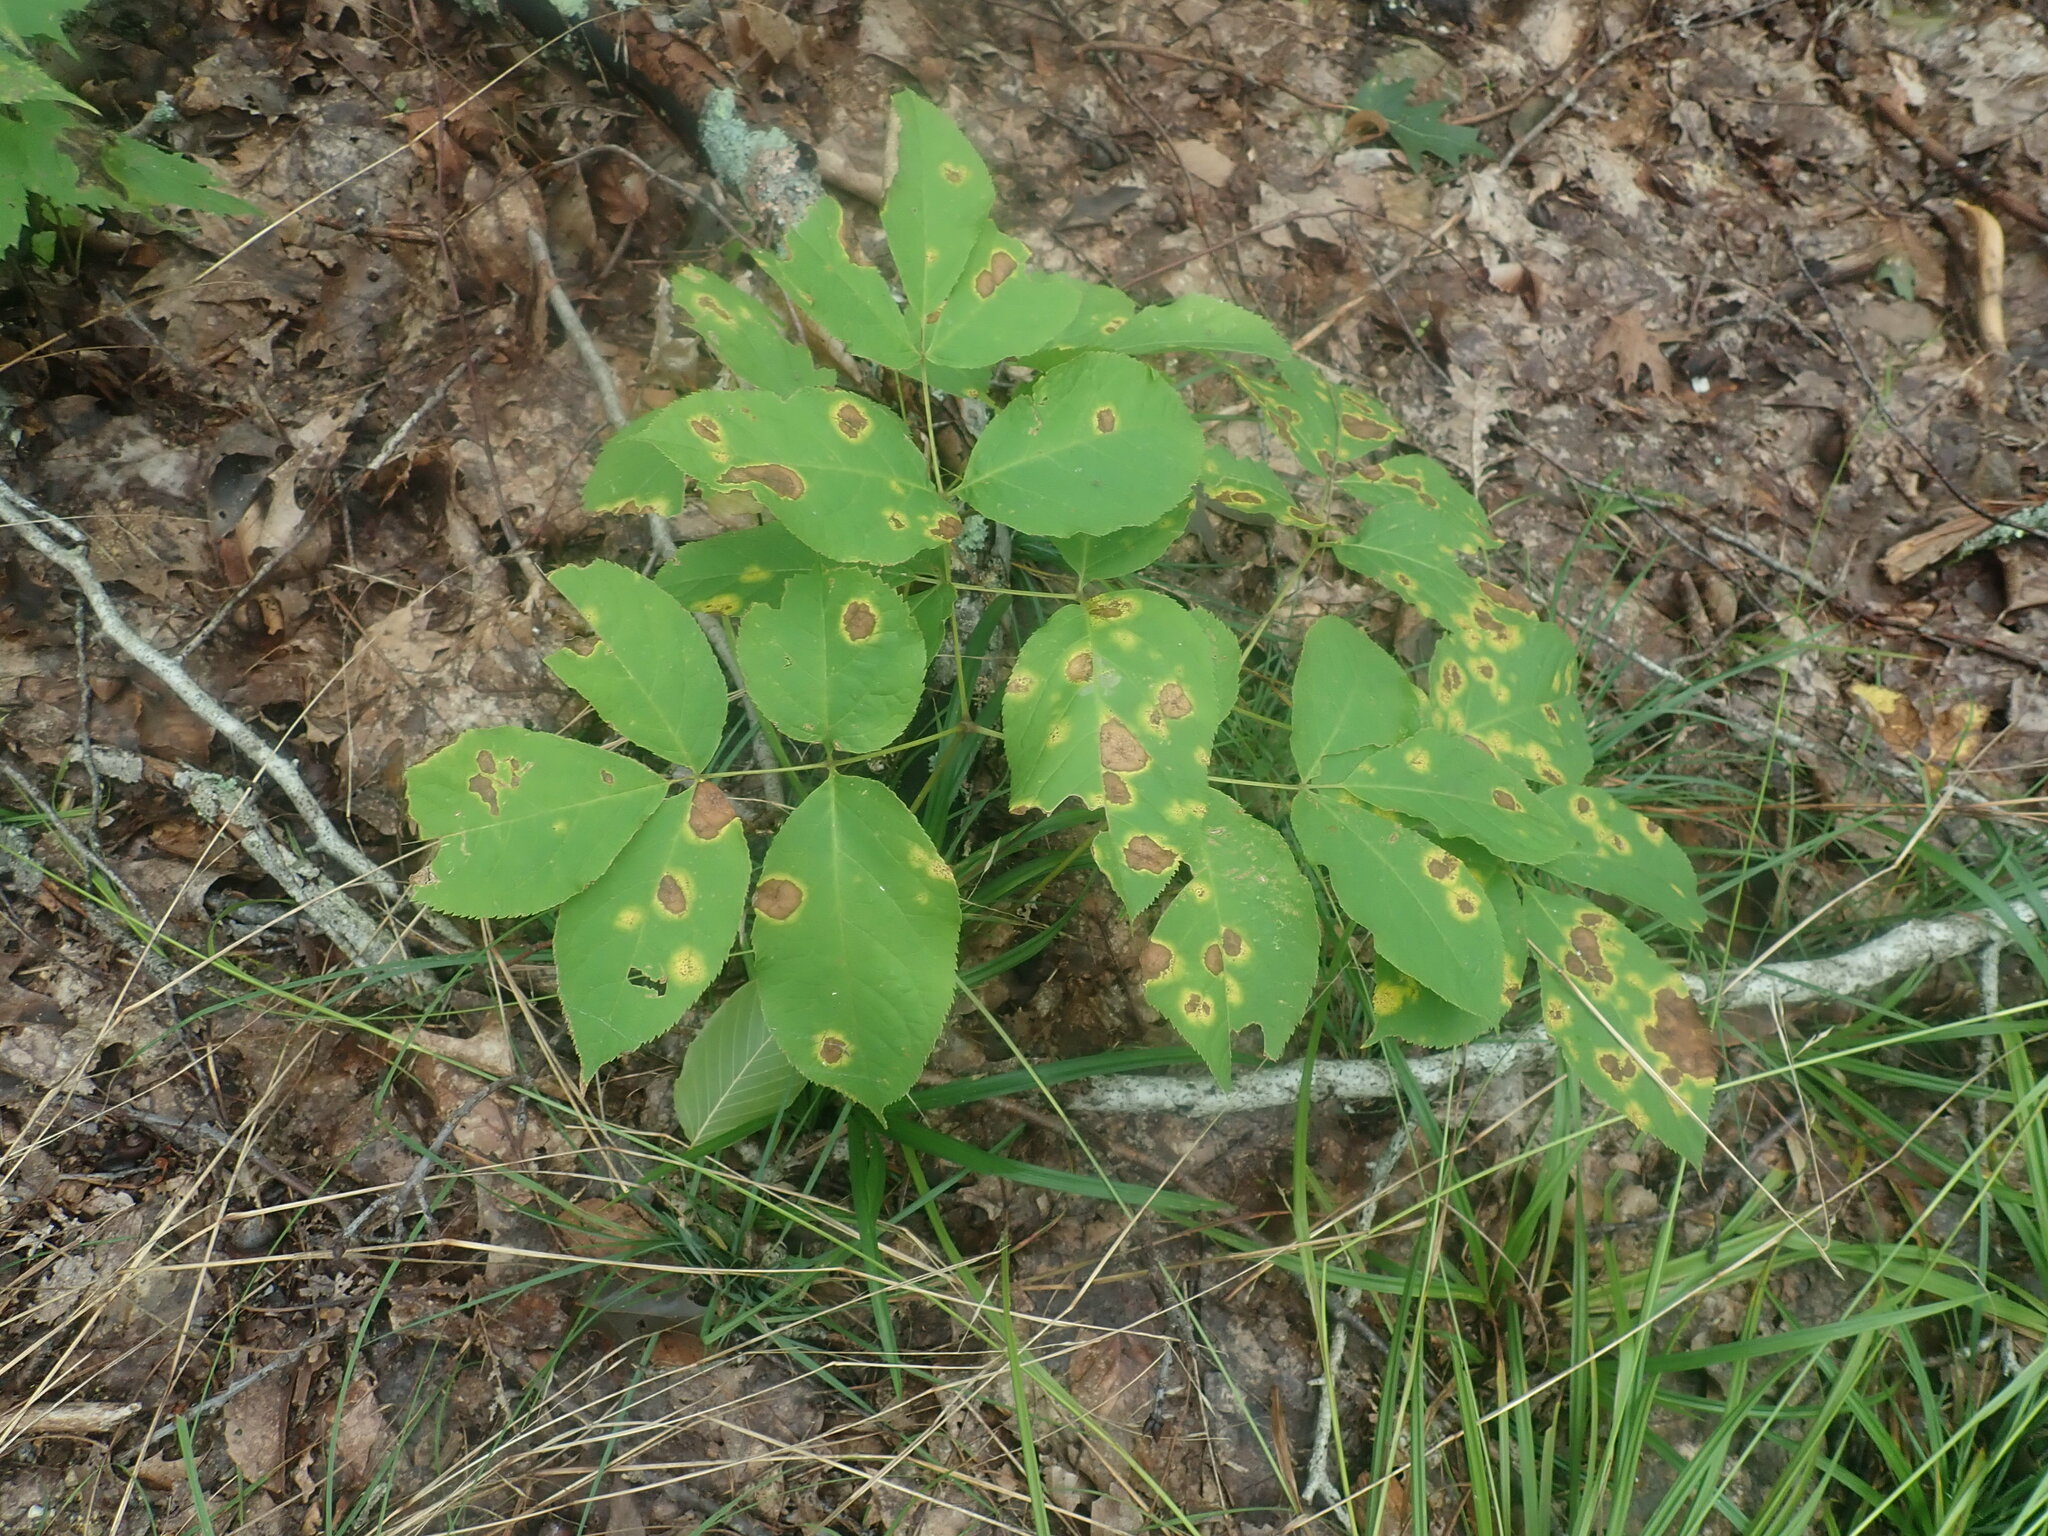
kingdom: Plantae
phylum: Tracheophyta
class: Magnoliopsida
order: Apiales
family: Araliaceae
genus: Aralia
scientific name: Aralia nudicaulis
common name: Wild sarsaparilla
